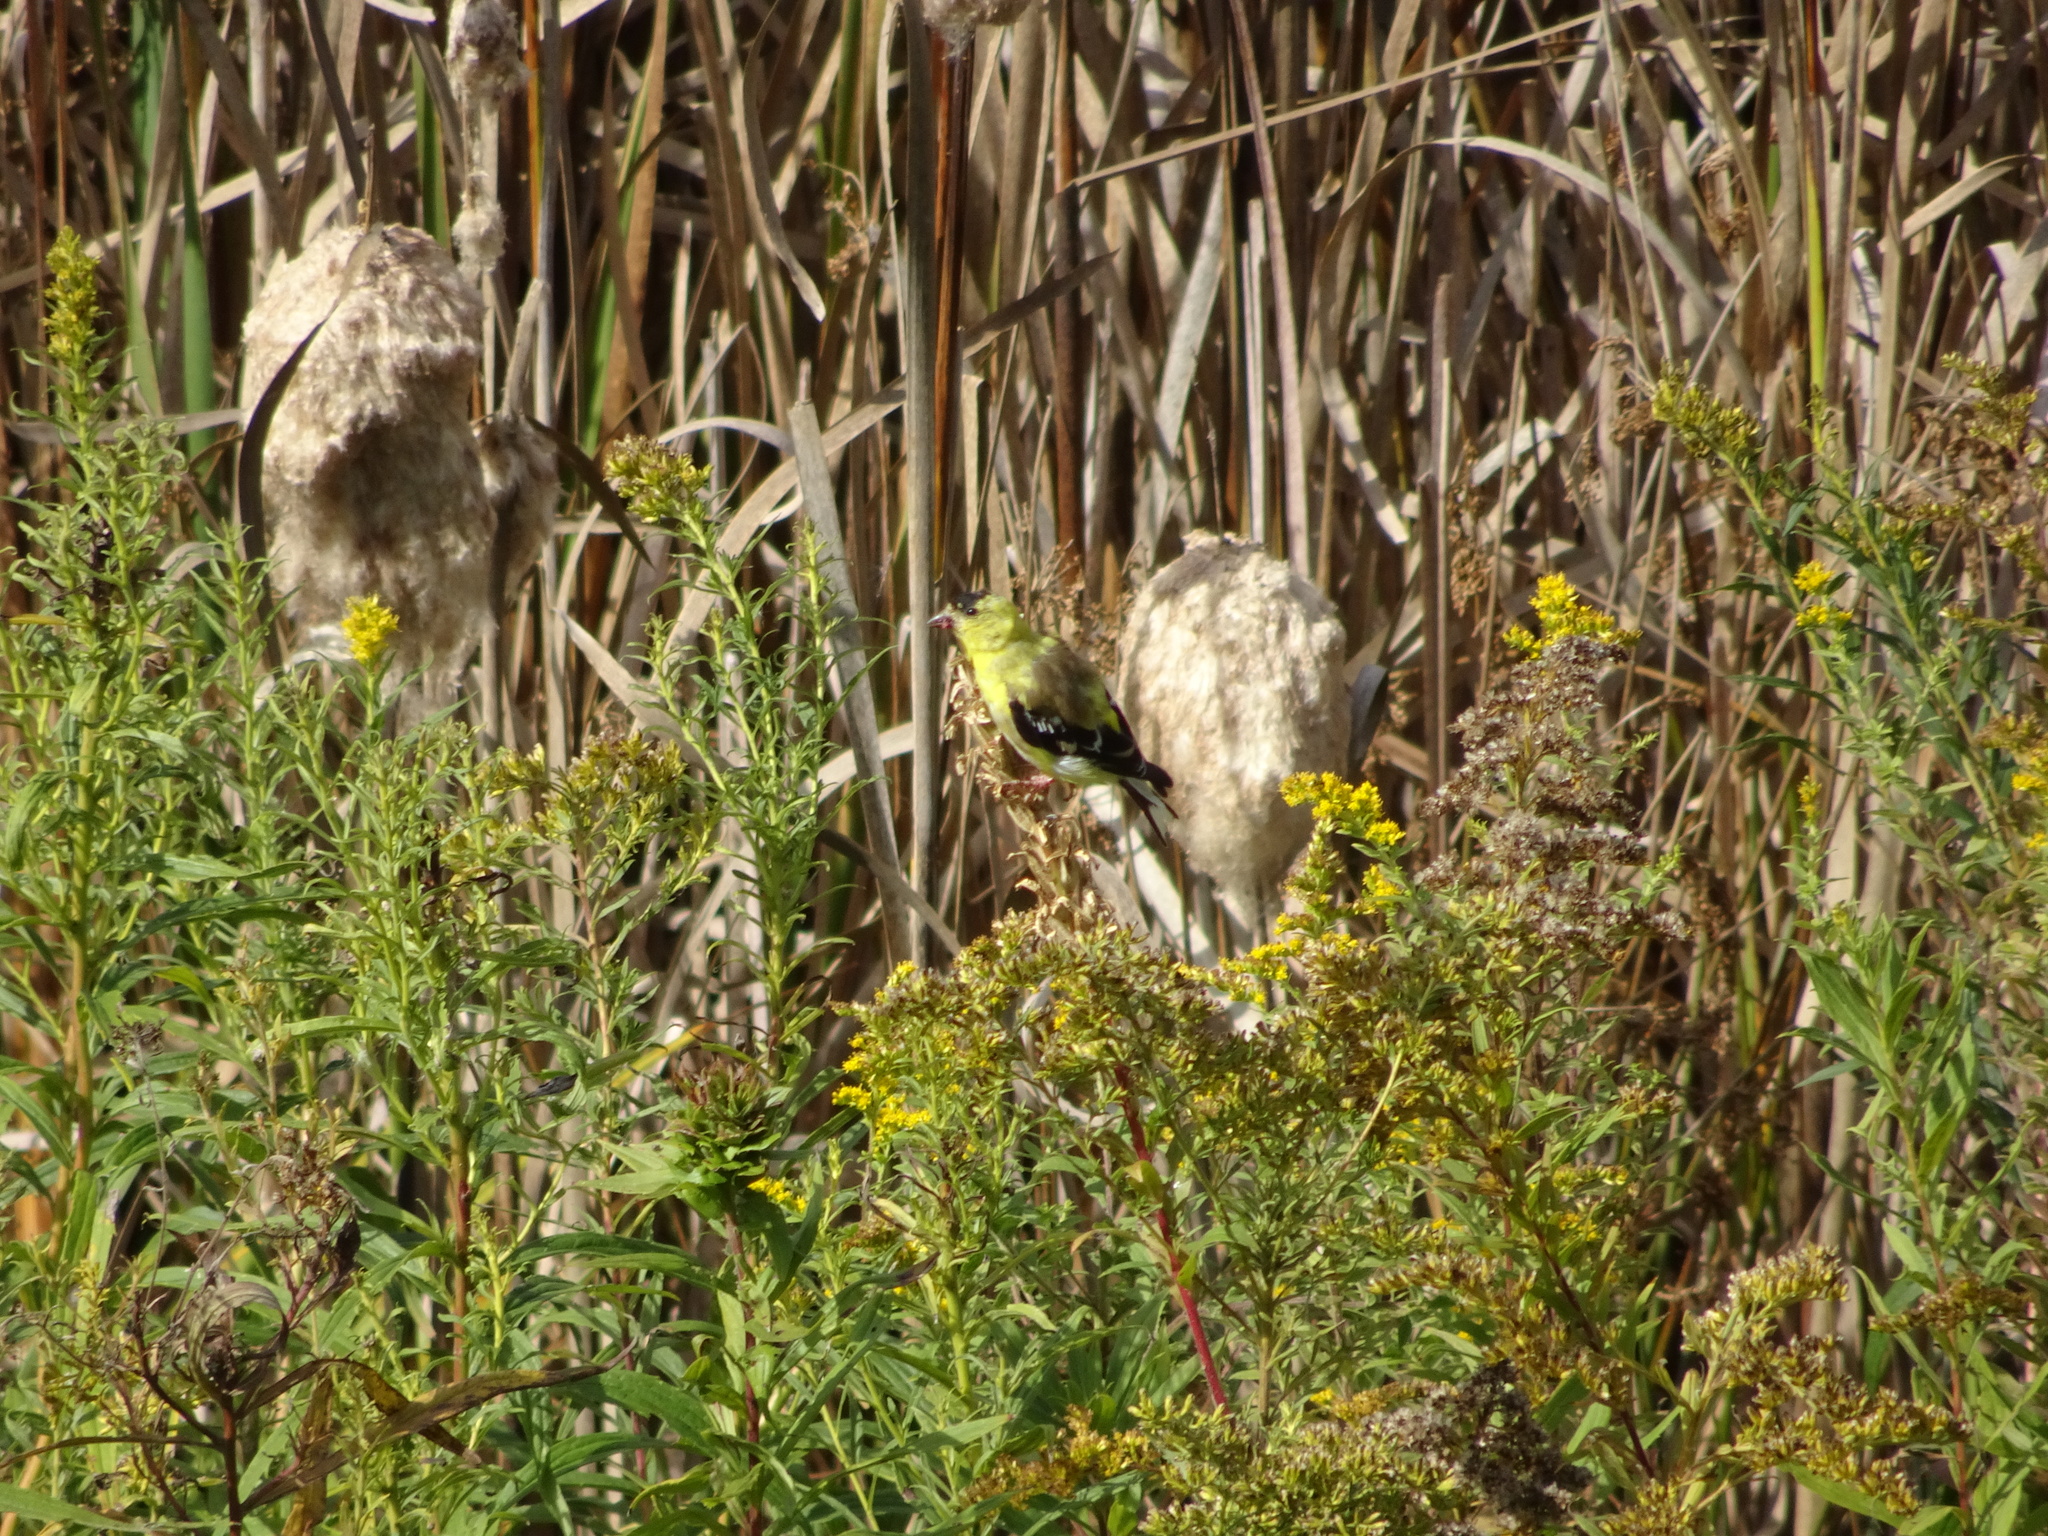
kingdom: Animalia
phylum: Chordata
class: Aves
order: Passeriformes
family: Fringillidae
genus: Spinus
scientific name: Spinus tristis
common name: American goldfinch
